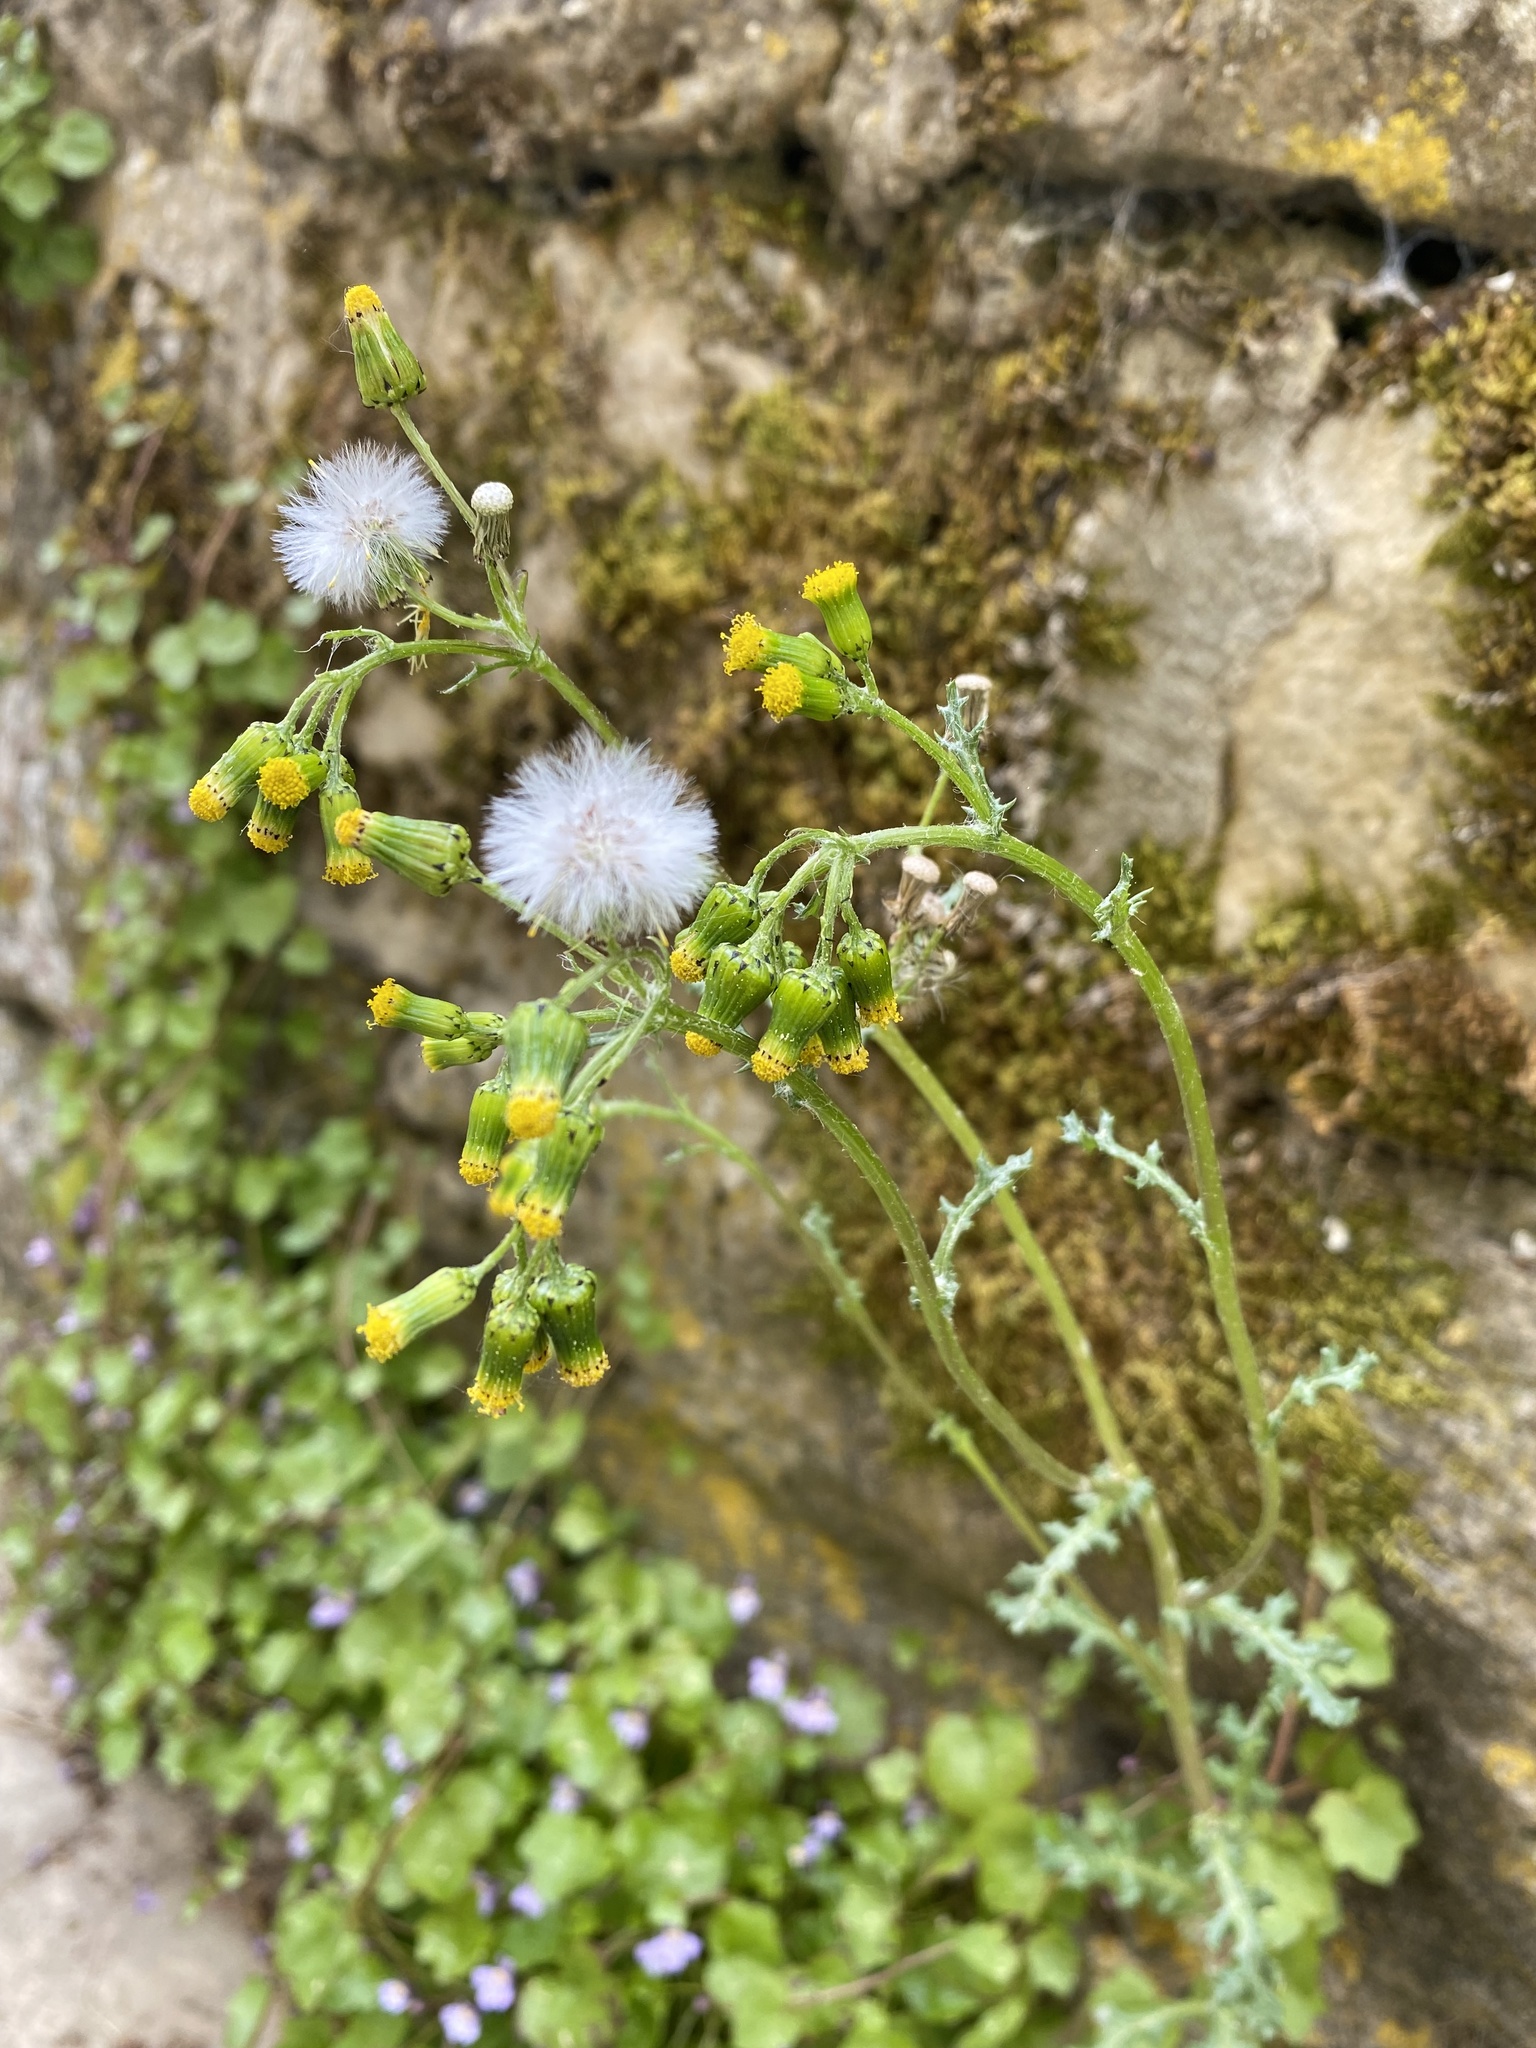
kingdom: Plantae
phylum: Tracheophyta
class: Magnoliopsida
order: Asterales
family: Asteraceae
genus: Senecio
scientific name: Senecio vulgaris
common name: Old-man-in-the-spring
